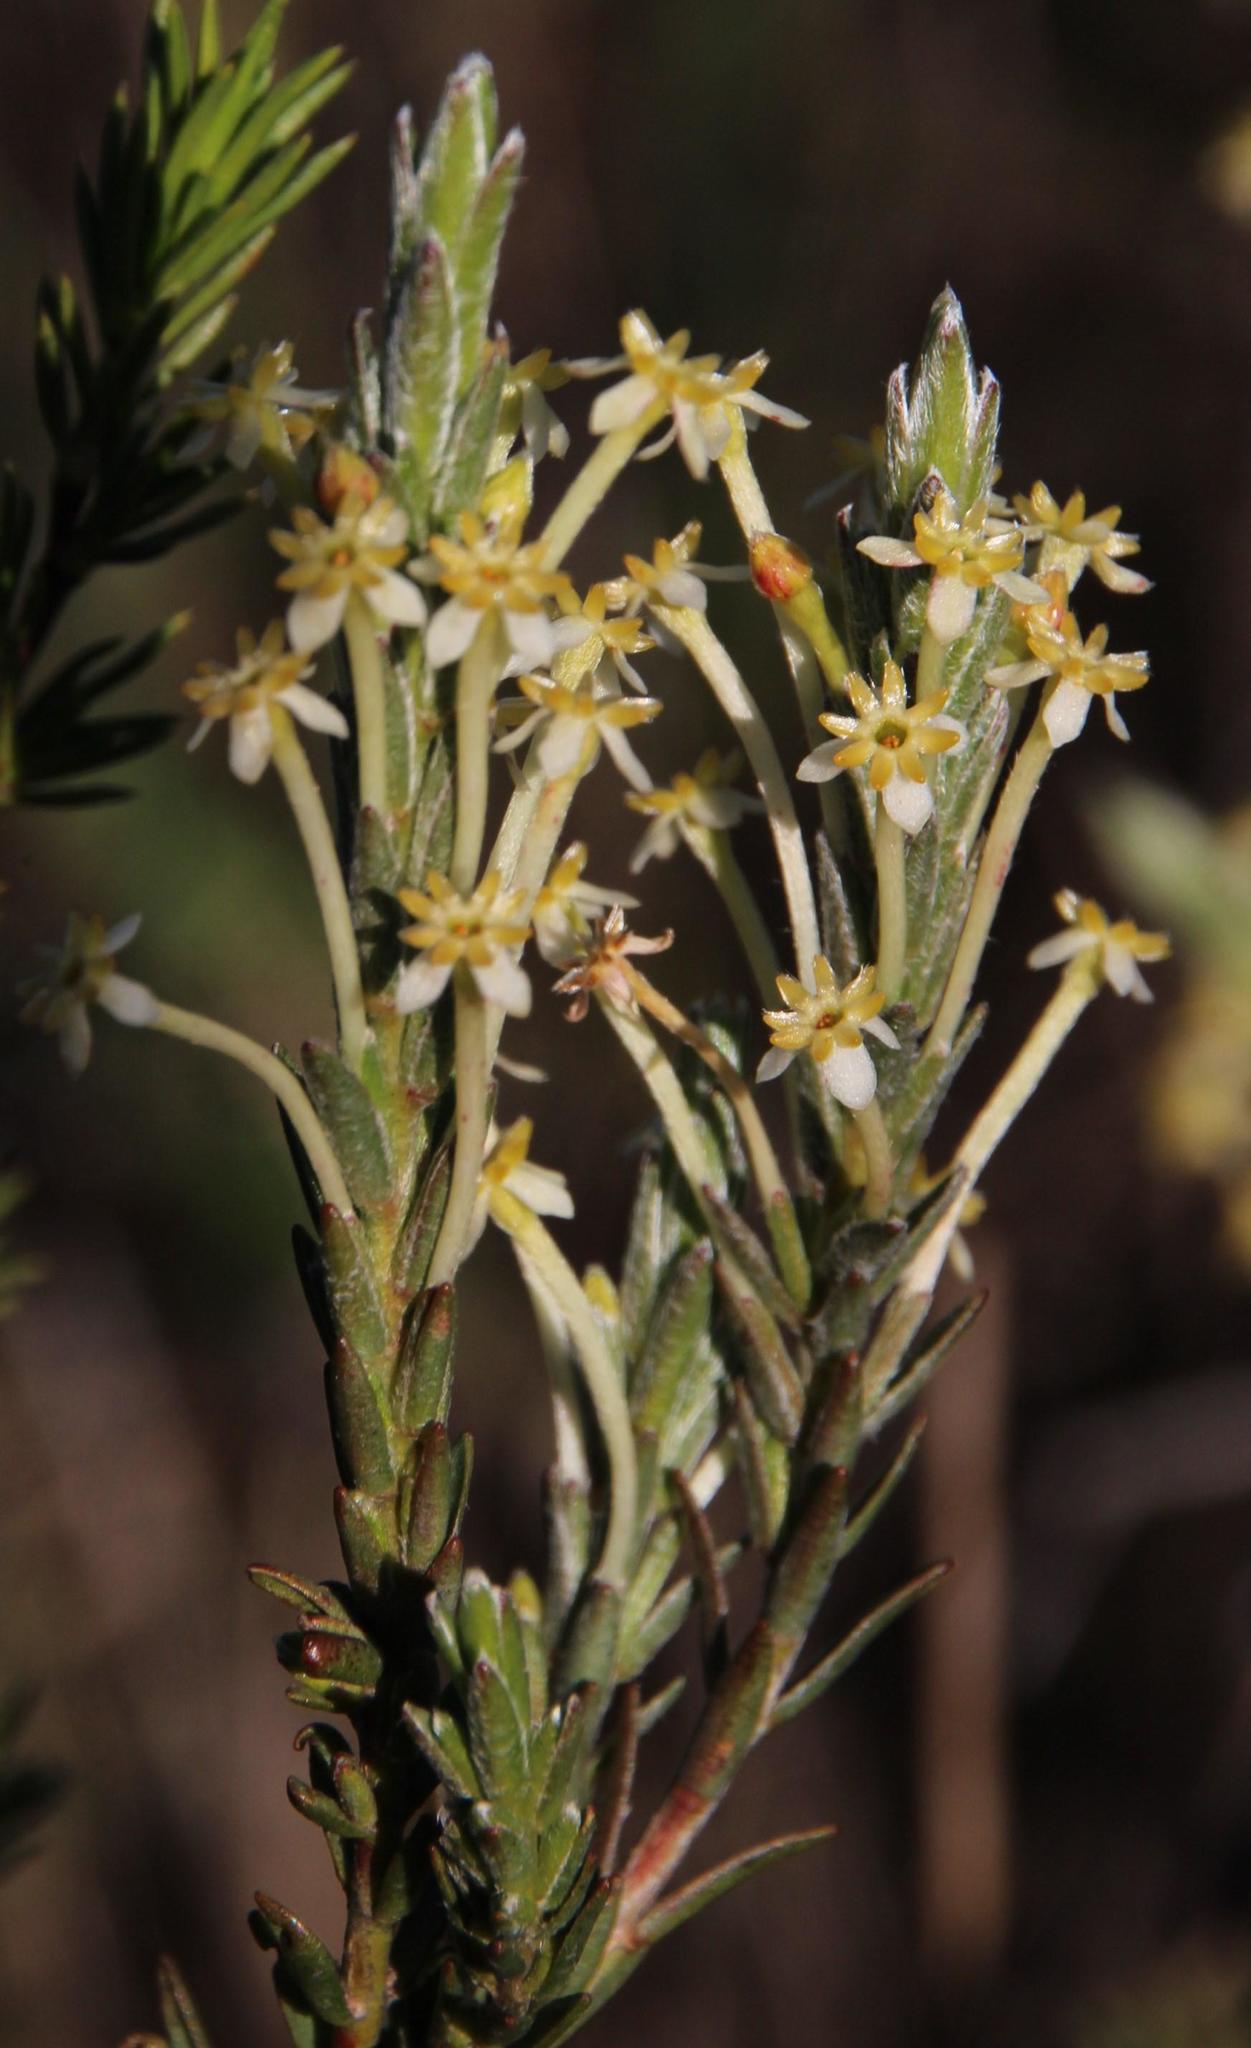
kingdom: Plantae
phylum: Tracheophyta
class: Magnoliopsida
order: Malvales
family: Thymelaeaceae
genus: Struthiola
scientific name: Struthiola ciliata
